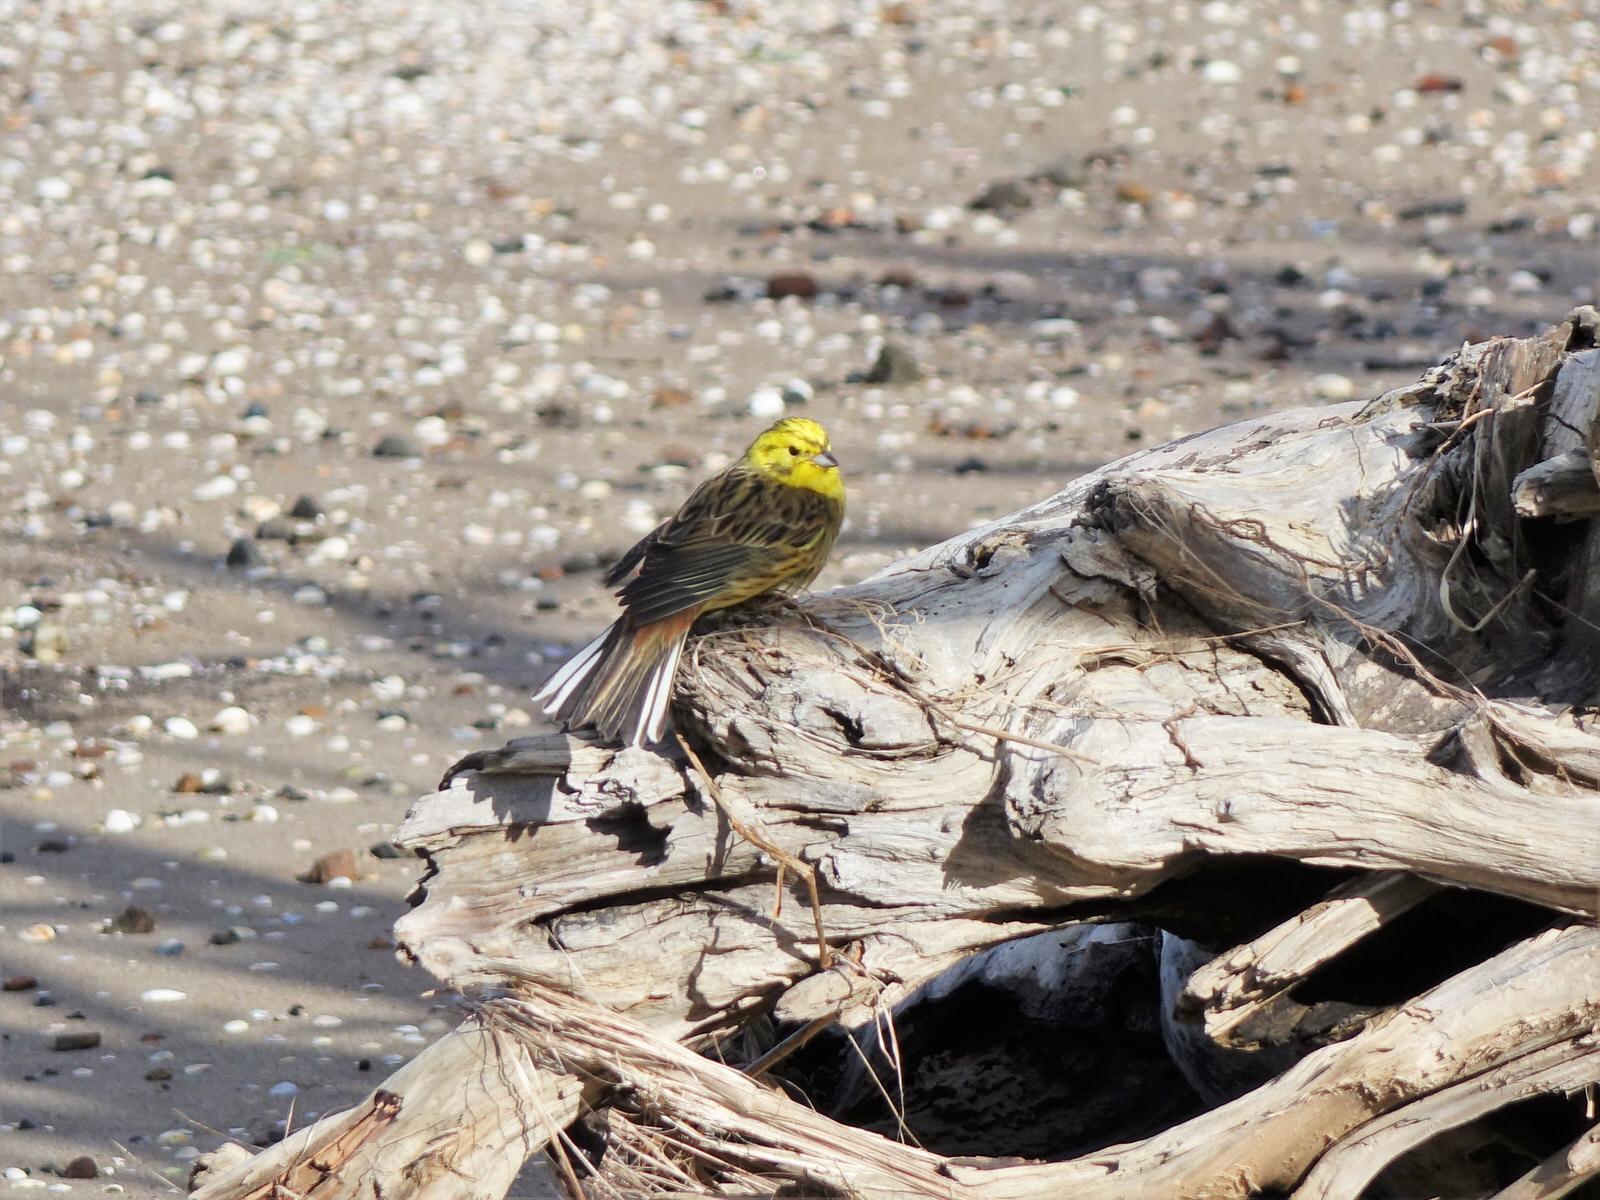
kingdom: Animalia
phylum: Chordata
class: Aves
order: Passeriformes
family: Emberizidae
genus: Emberiza
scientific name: Emberiza citrinella
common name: Yellowhammer
